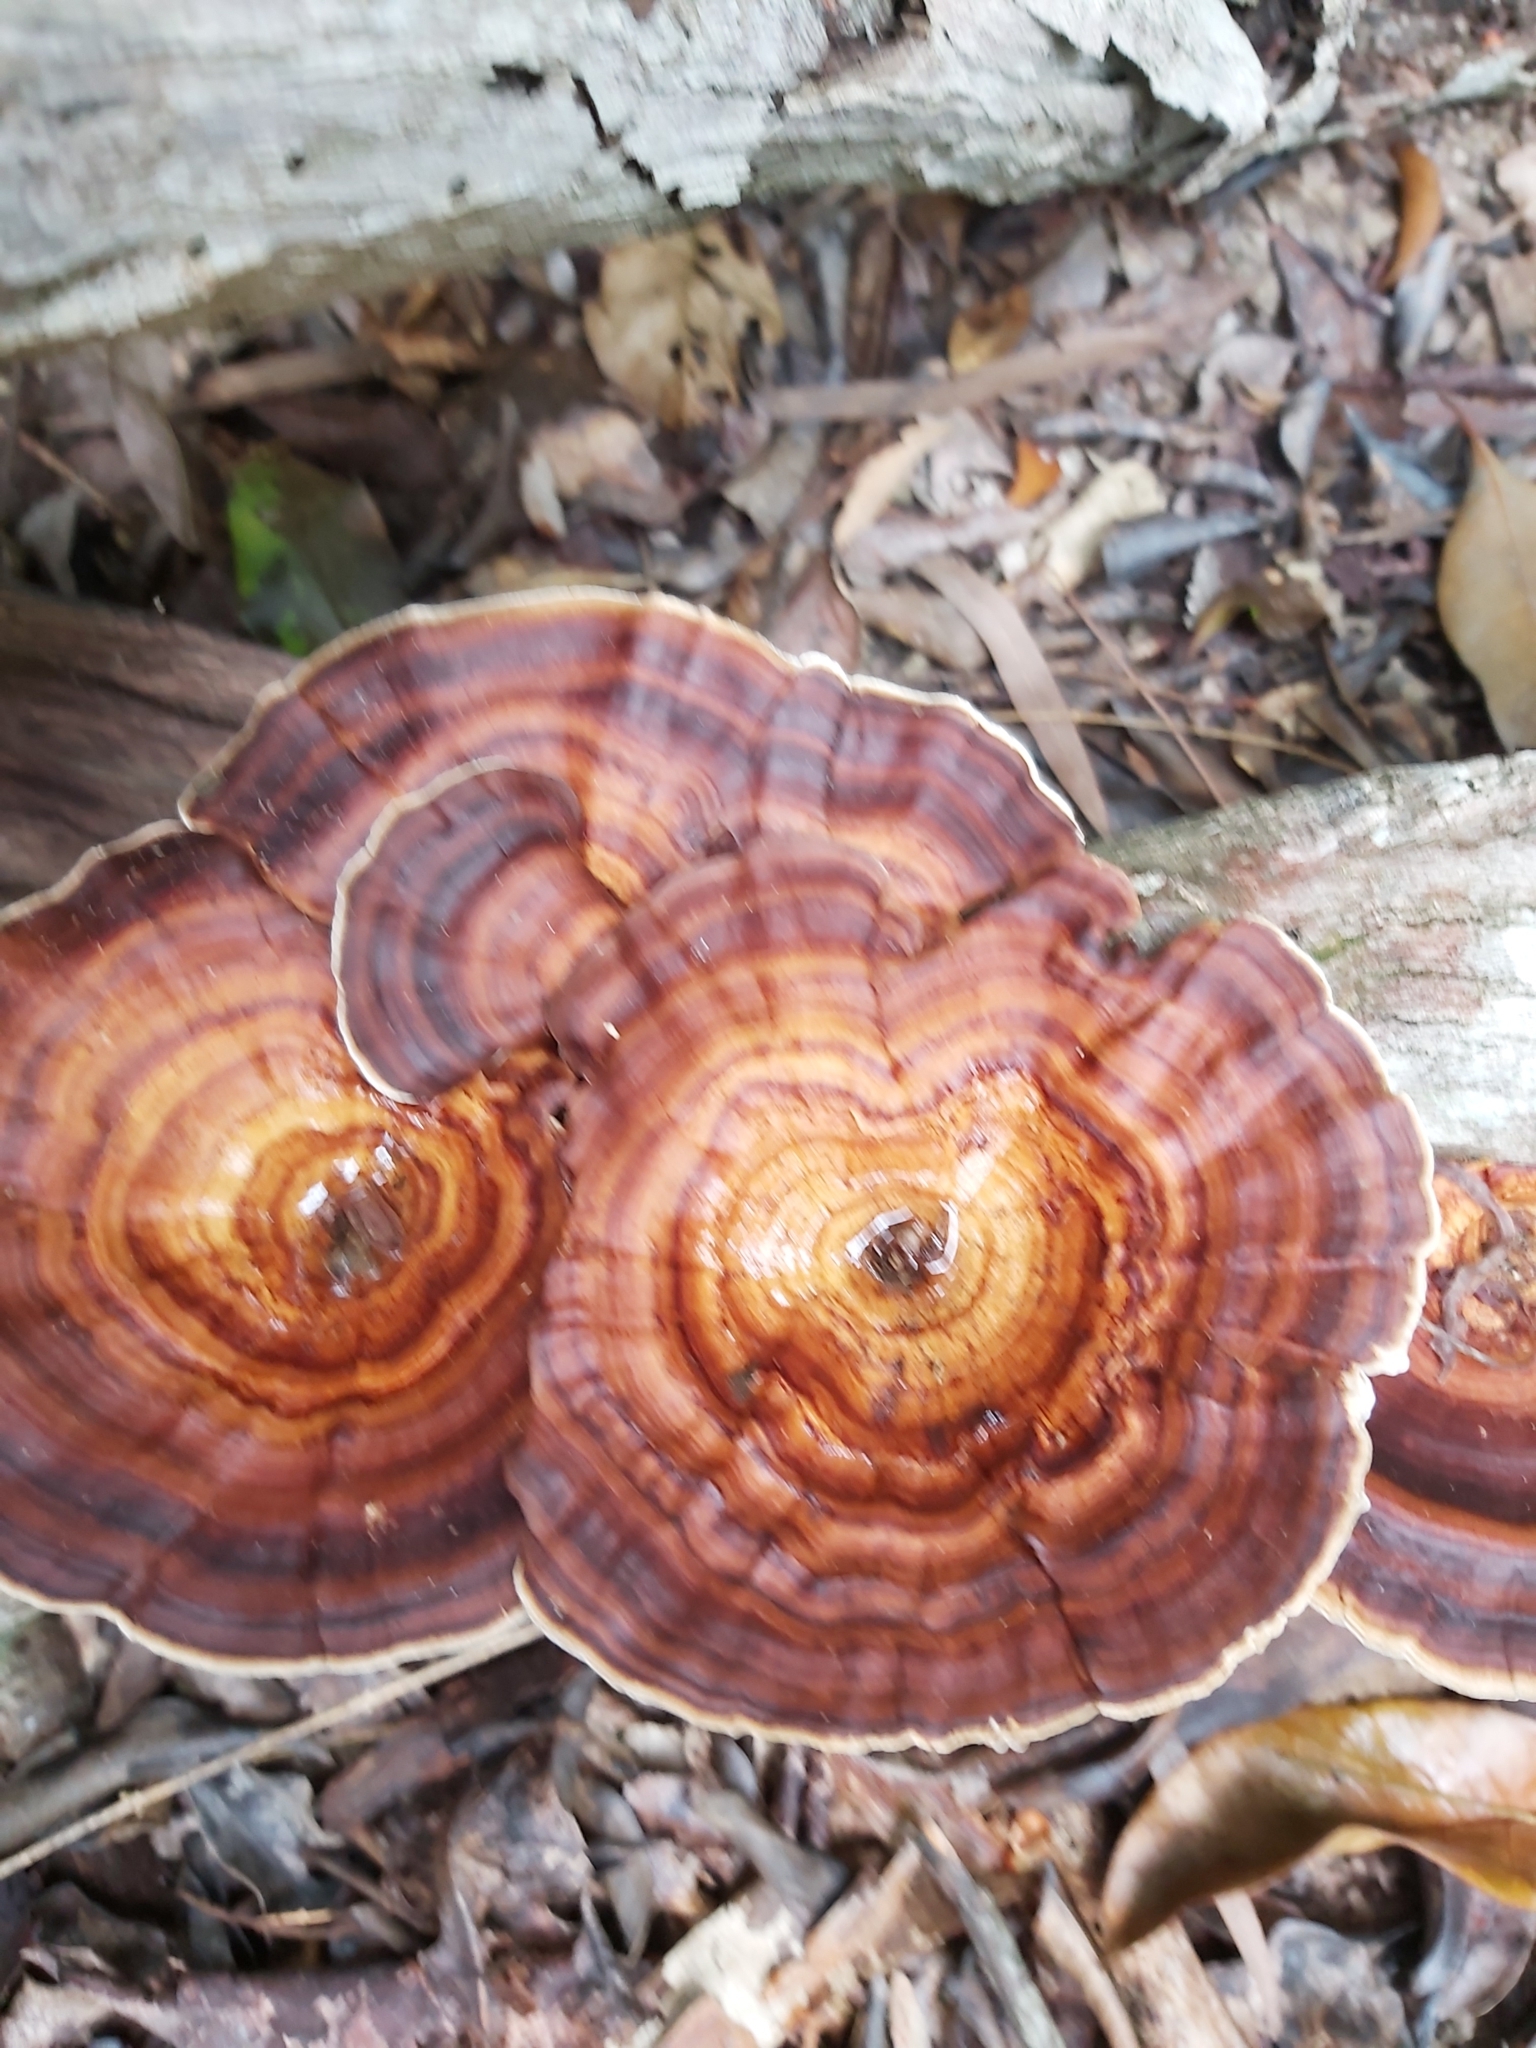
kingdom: Fungi
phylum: Basidiomycota
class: Agaricomycetes
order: Polyporales
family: Polyporaceae
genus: Microporus
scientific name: Microporus xanthopus
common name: Yellow-stemmed micropore
